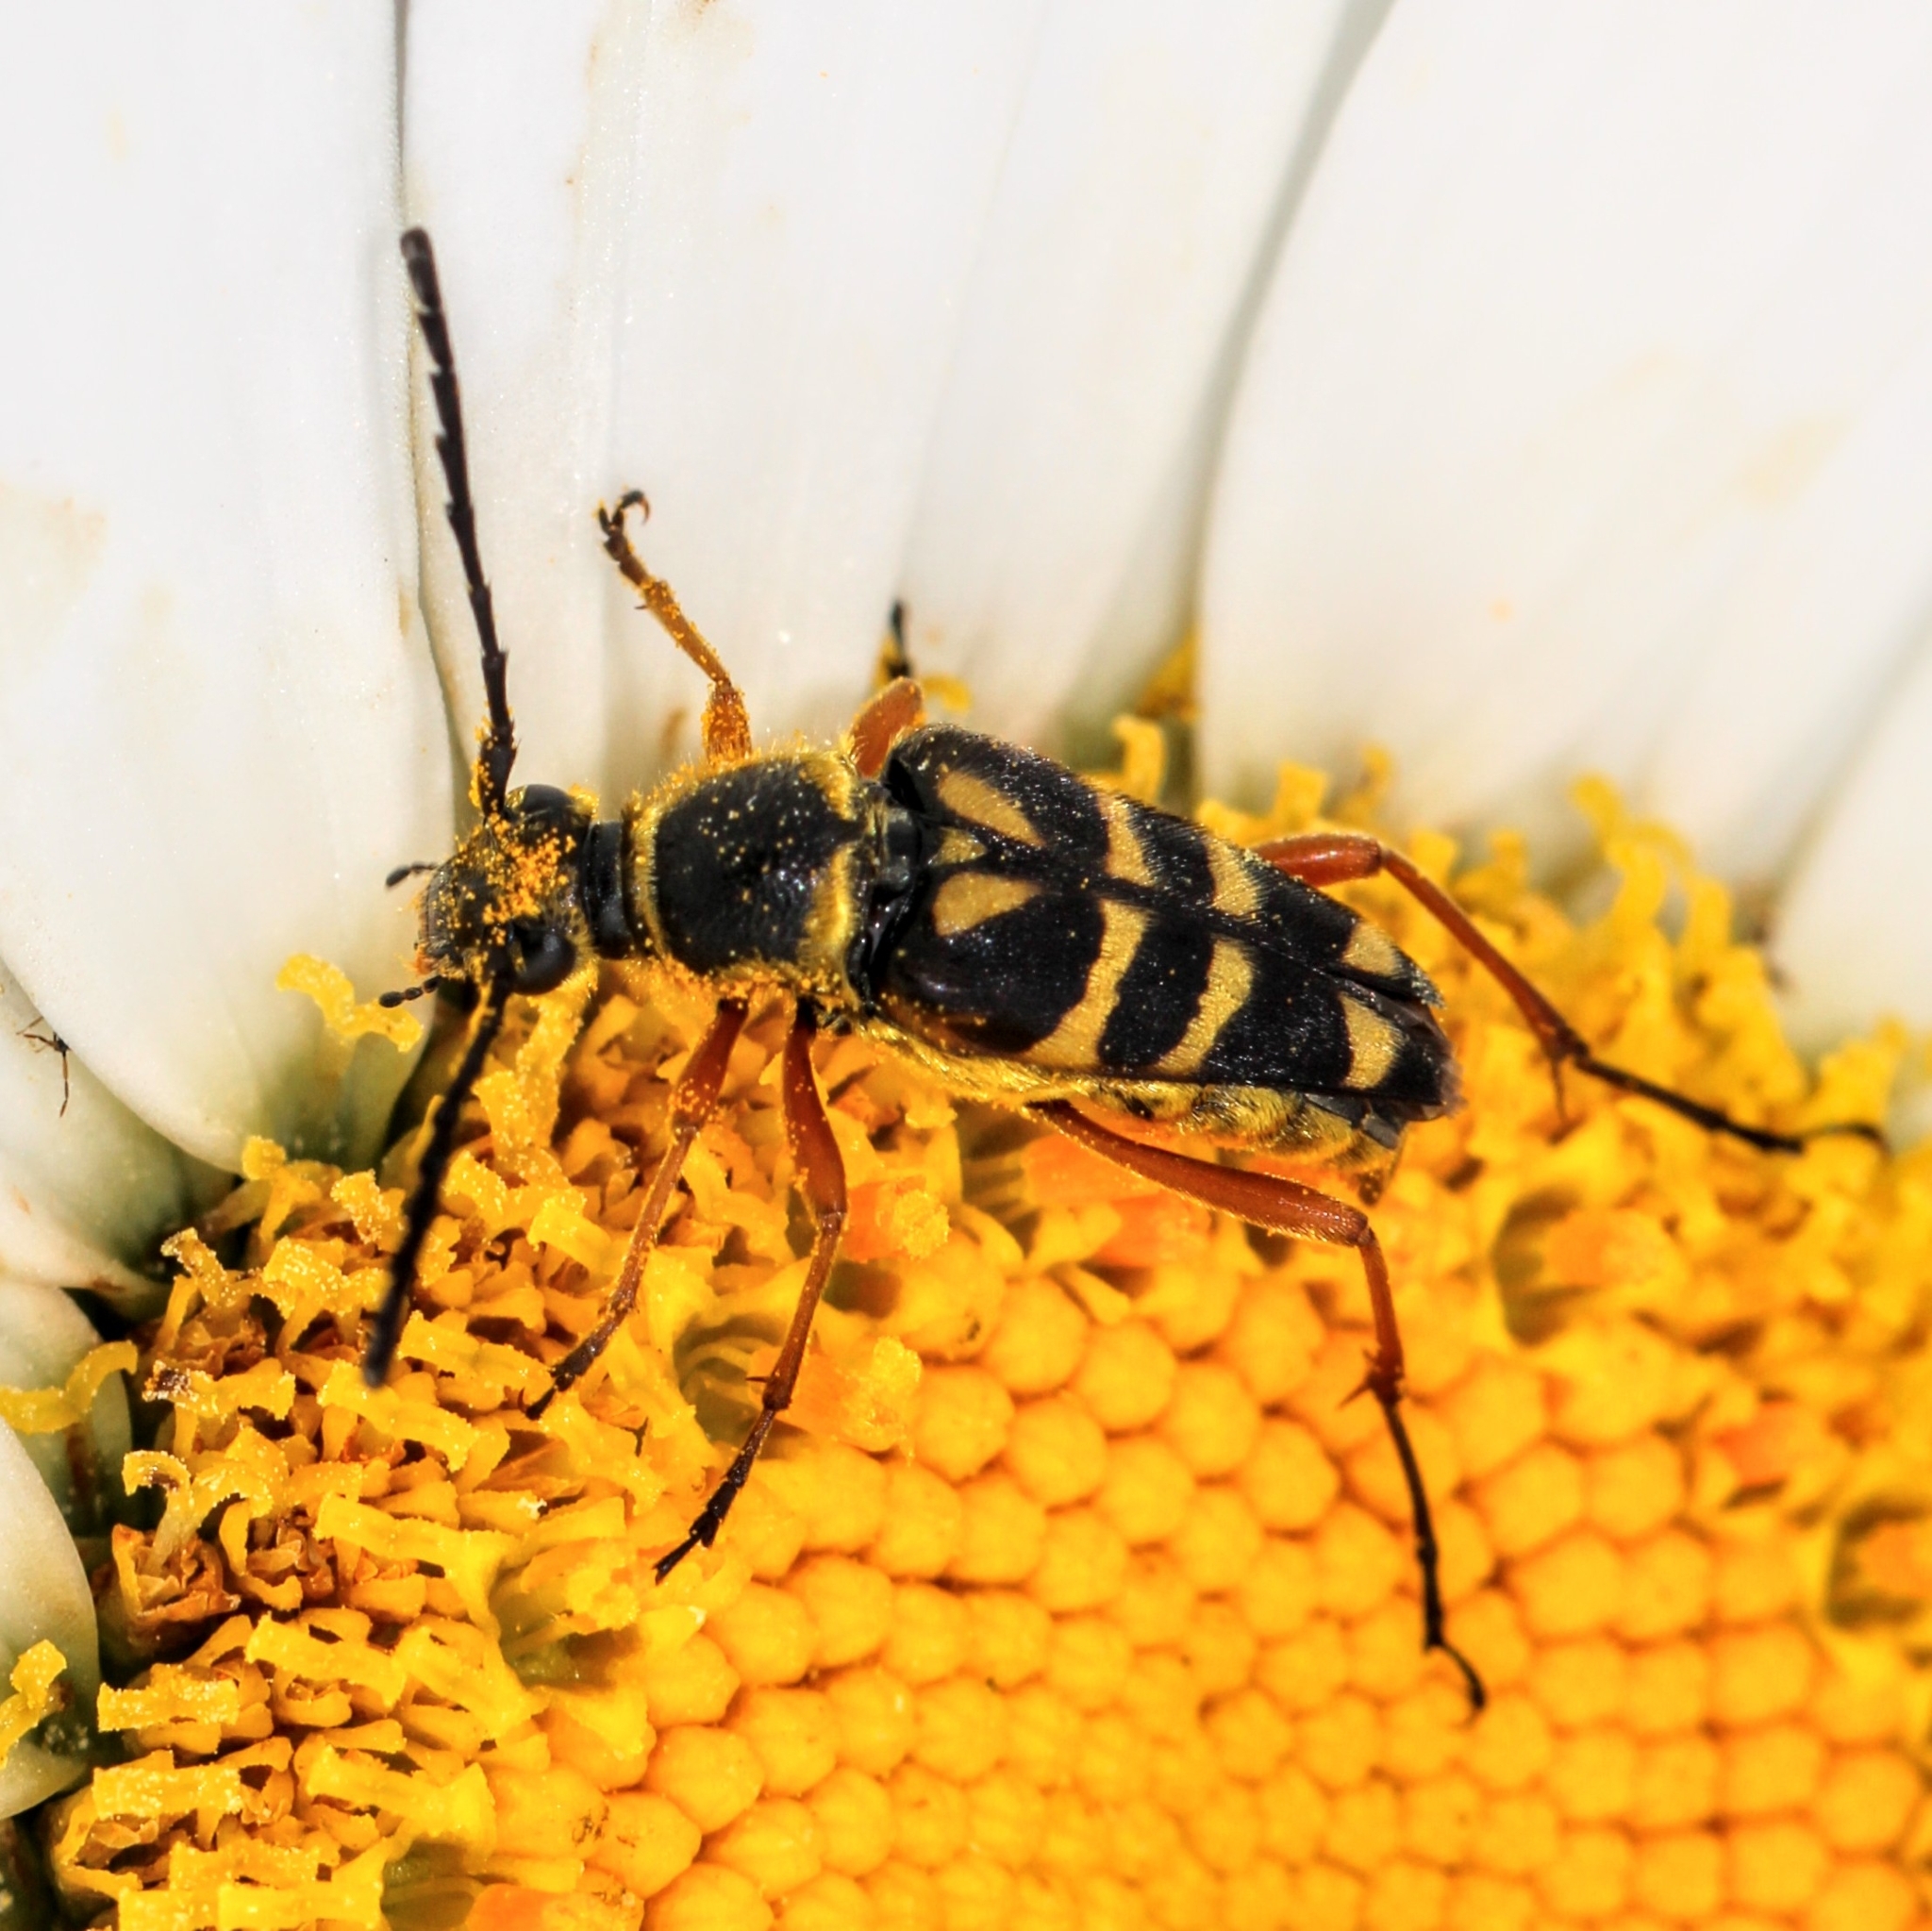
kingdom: Animalia
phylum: Arthropoda
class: Insecta
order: Coleoptera
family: Cerambycidae
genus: Typocerus
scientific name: Typocerus zebra
